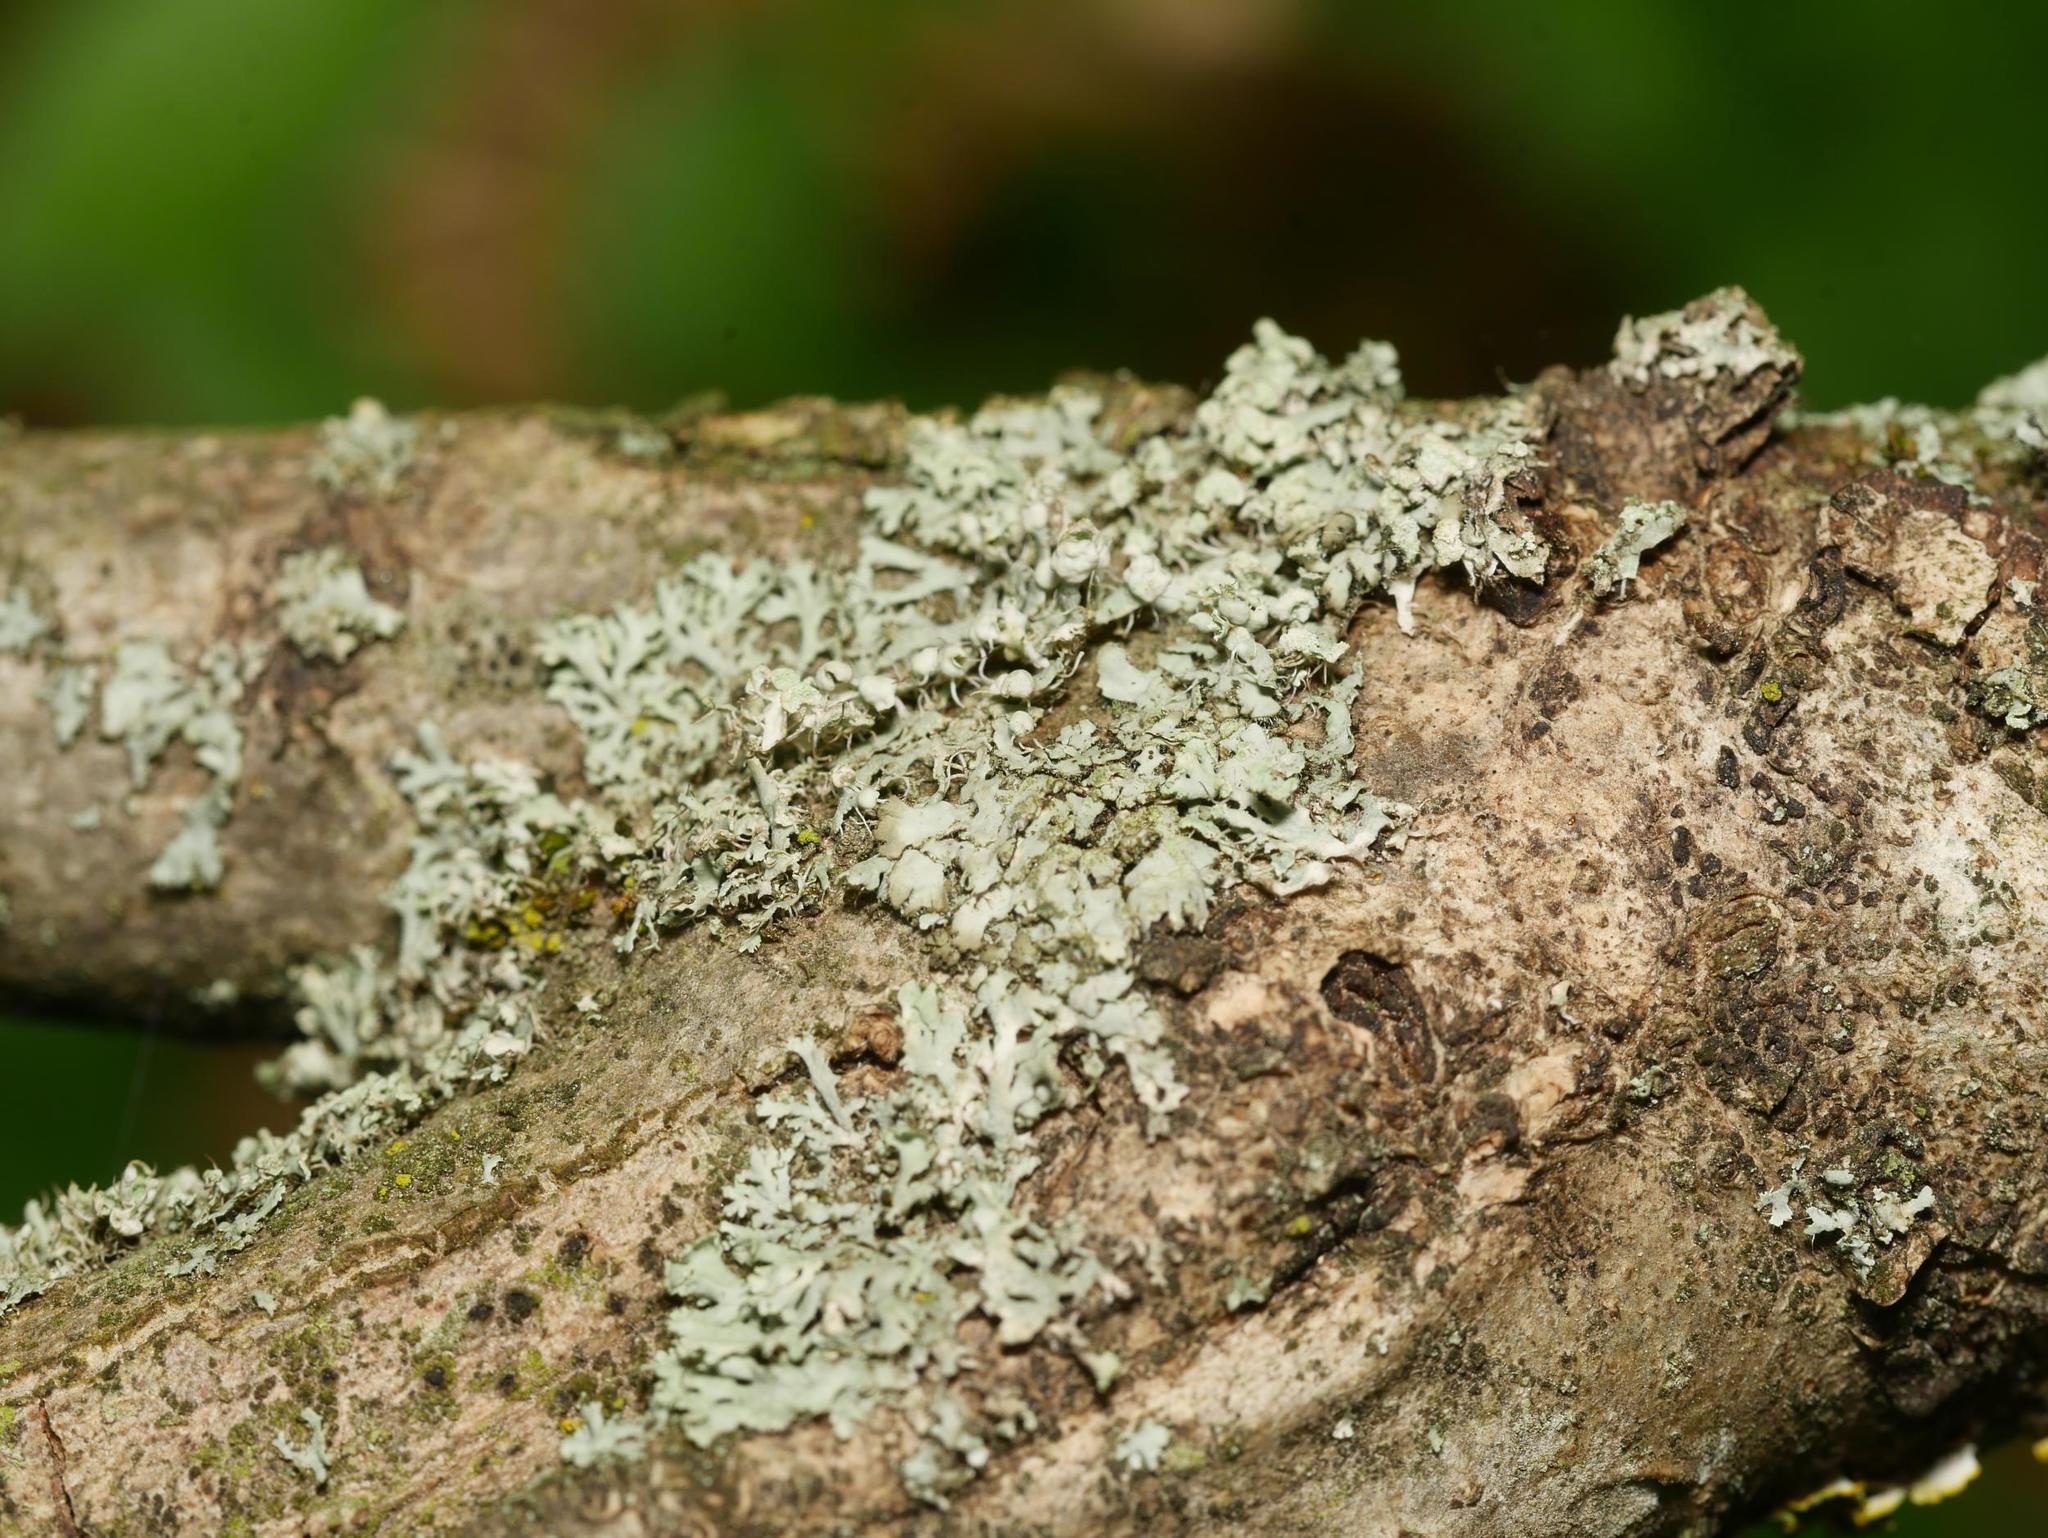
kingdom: Fungi
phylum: Ascomycota
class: Lecanoromycetes
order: Caliciales
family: Physciaceae
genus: Physcia
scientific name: Physcia adscendens
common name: Hooded rosette lichen
